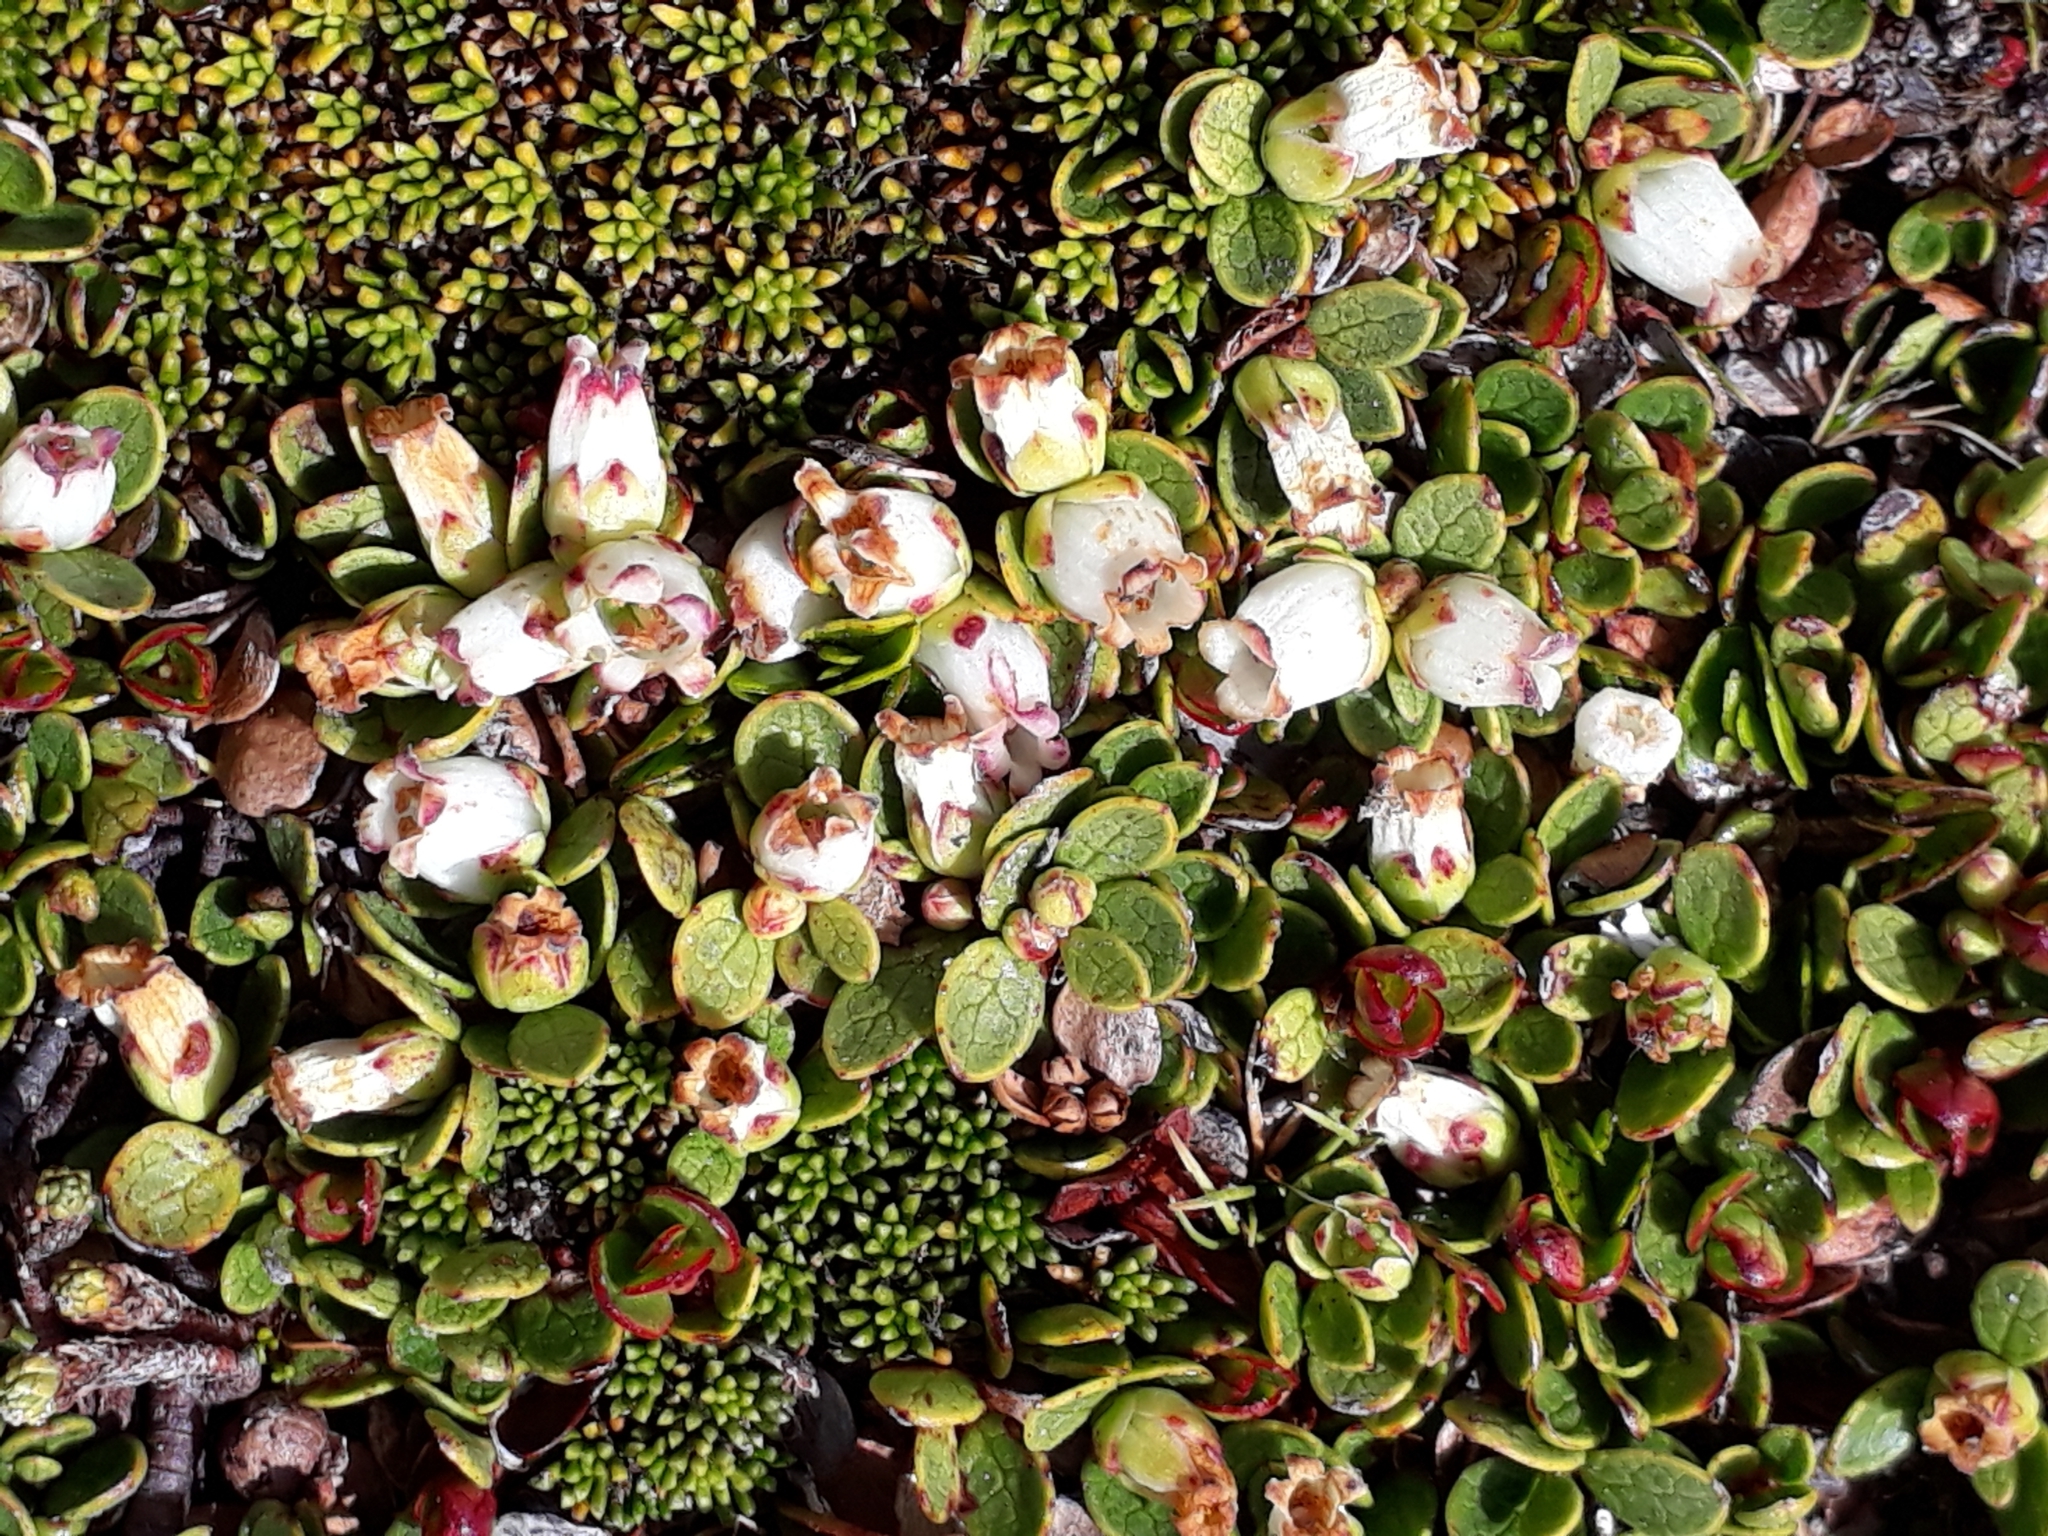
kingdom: Plantae
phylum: Tracheophyta
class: Magnoliopsida
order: Ericales
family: Ericaceae
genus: Gaultheria
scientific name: Gaultheria nubicola
